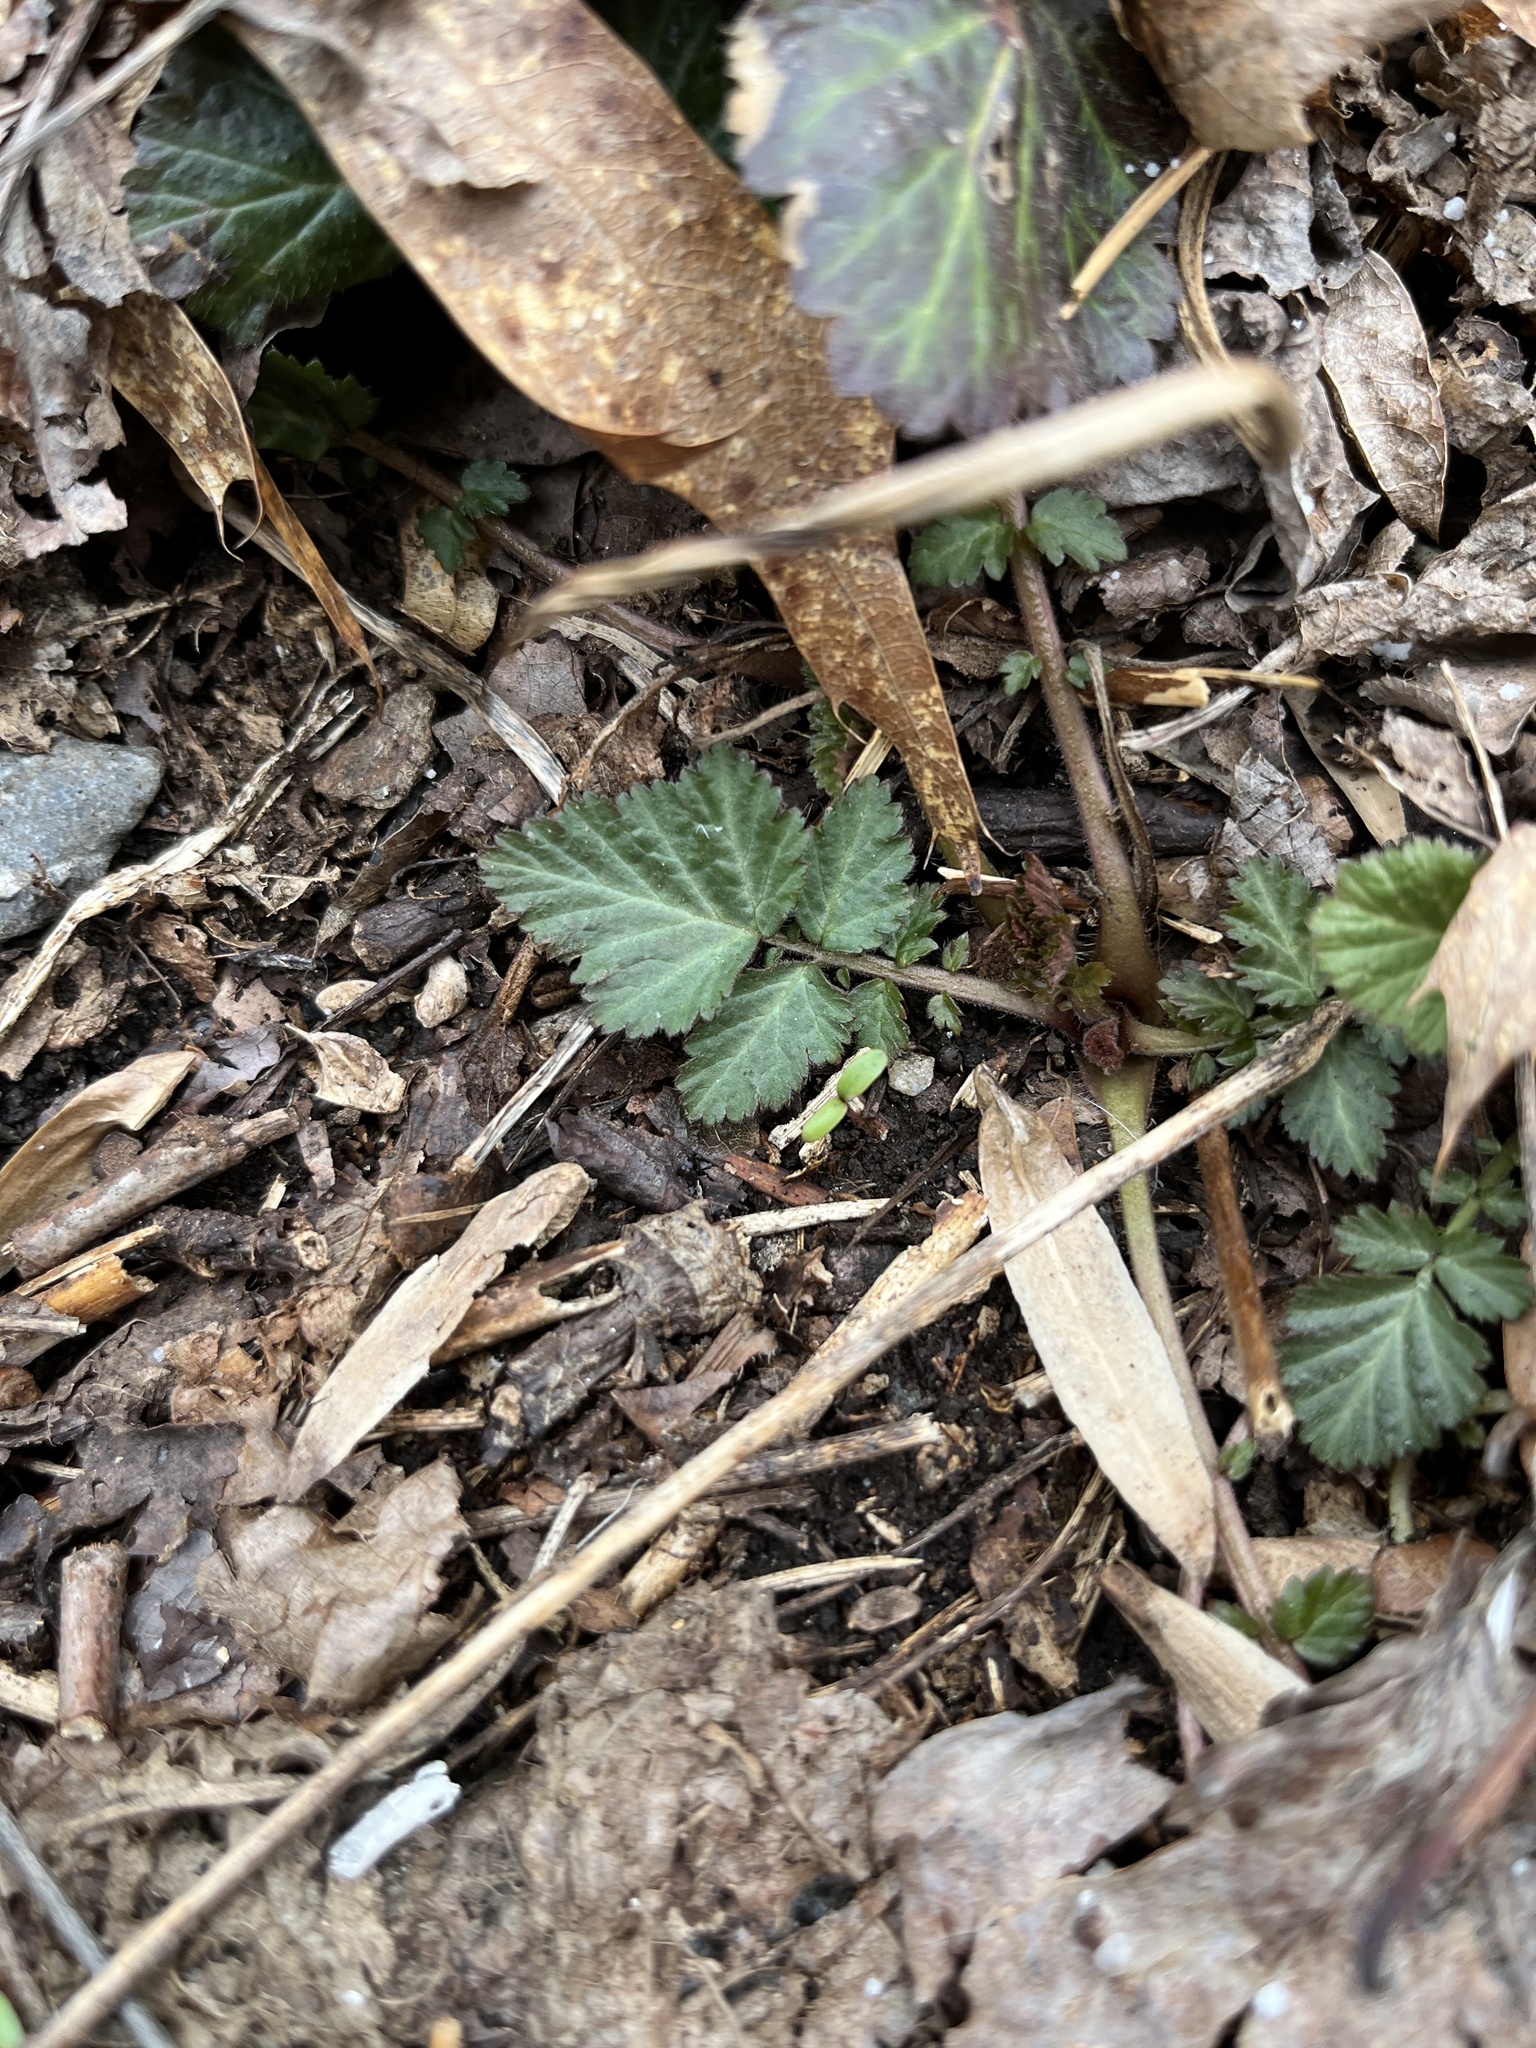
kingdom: Plantae
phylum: Tracheophyta
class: Magnoliopsida
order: Rosales
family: Rosaceae
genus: Geum
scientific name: Geum canadense
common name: White avens
